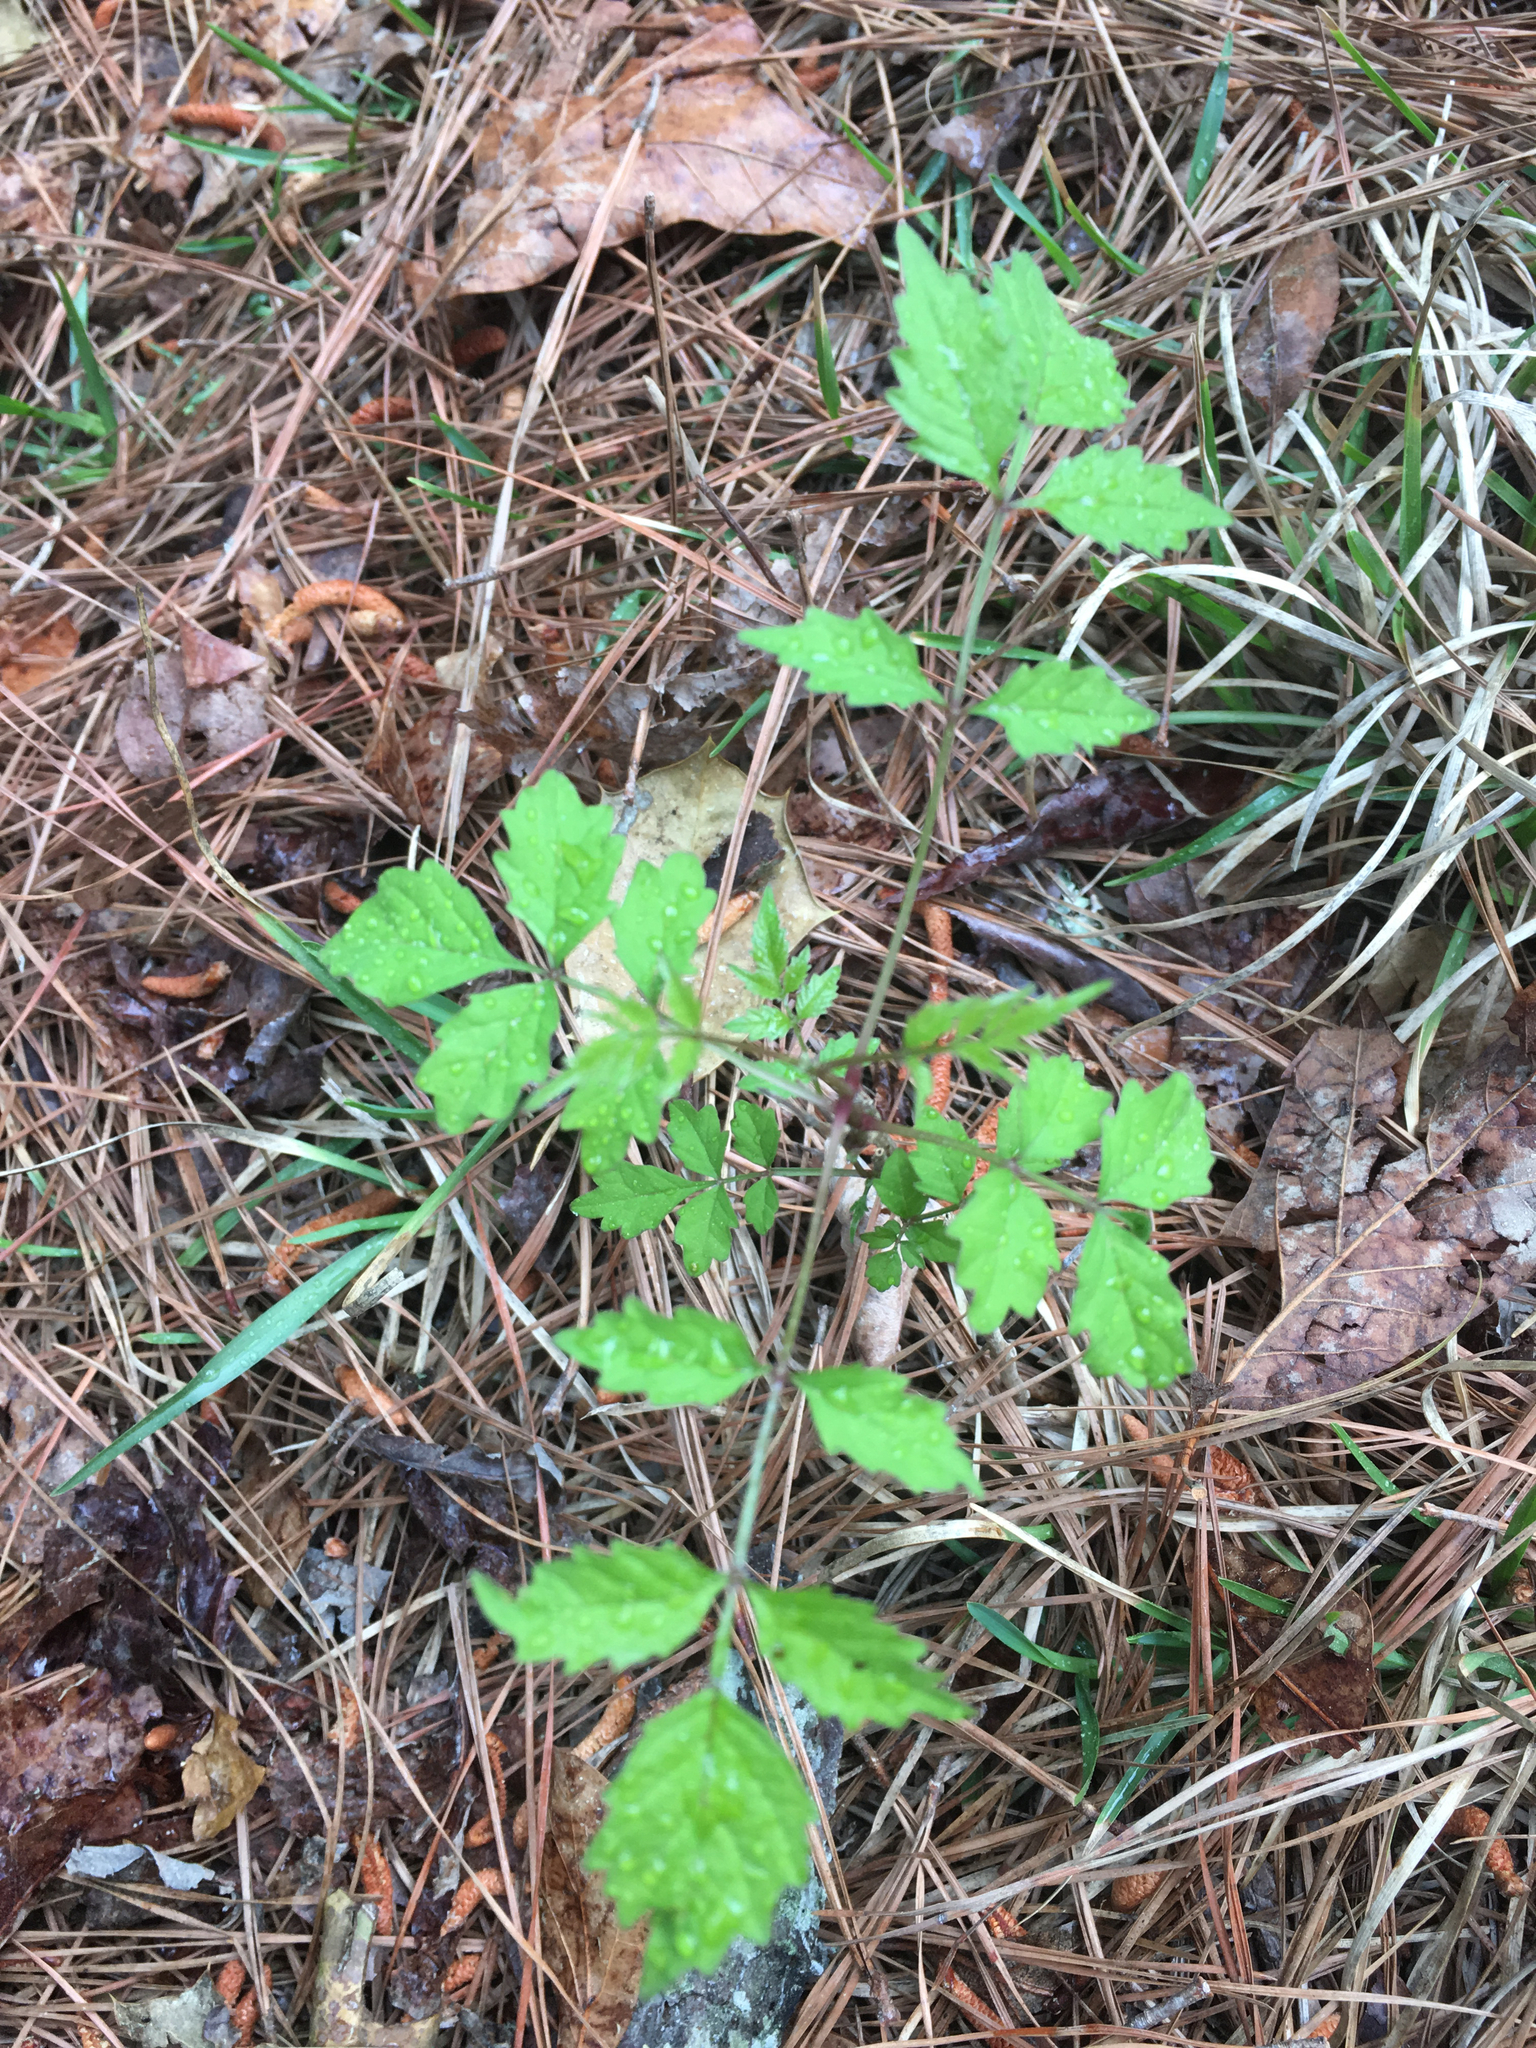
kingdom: Plantae
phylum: Tracheophyta
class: Magnoliopsida
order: Lamiales
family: Bignoniaceae
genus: Campsis
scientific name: Campsis radicans
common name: Trumpet-creeper
